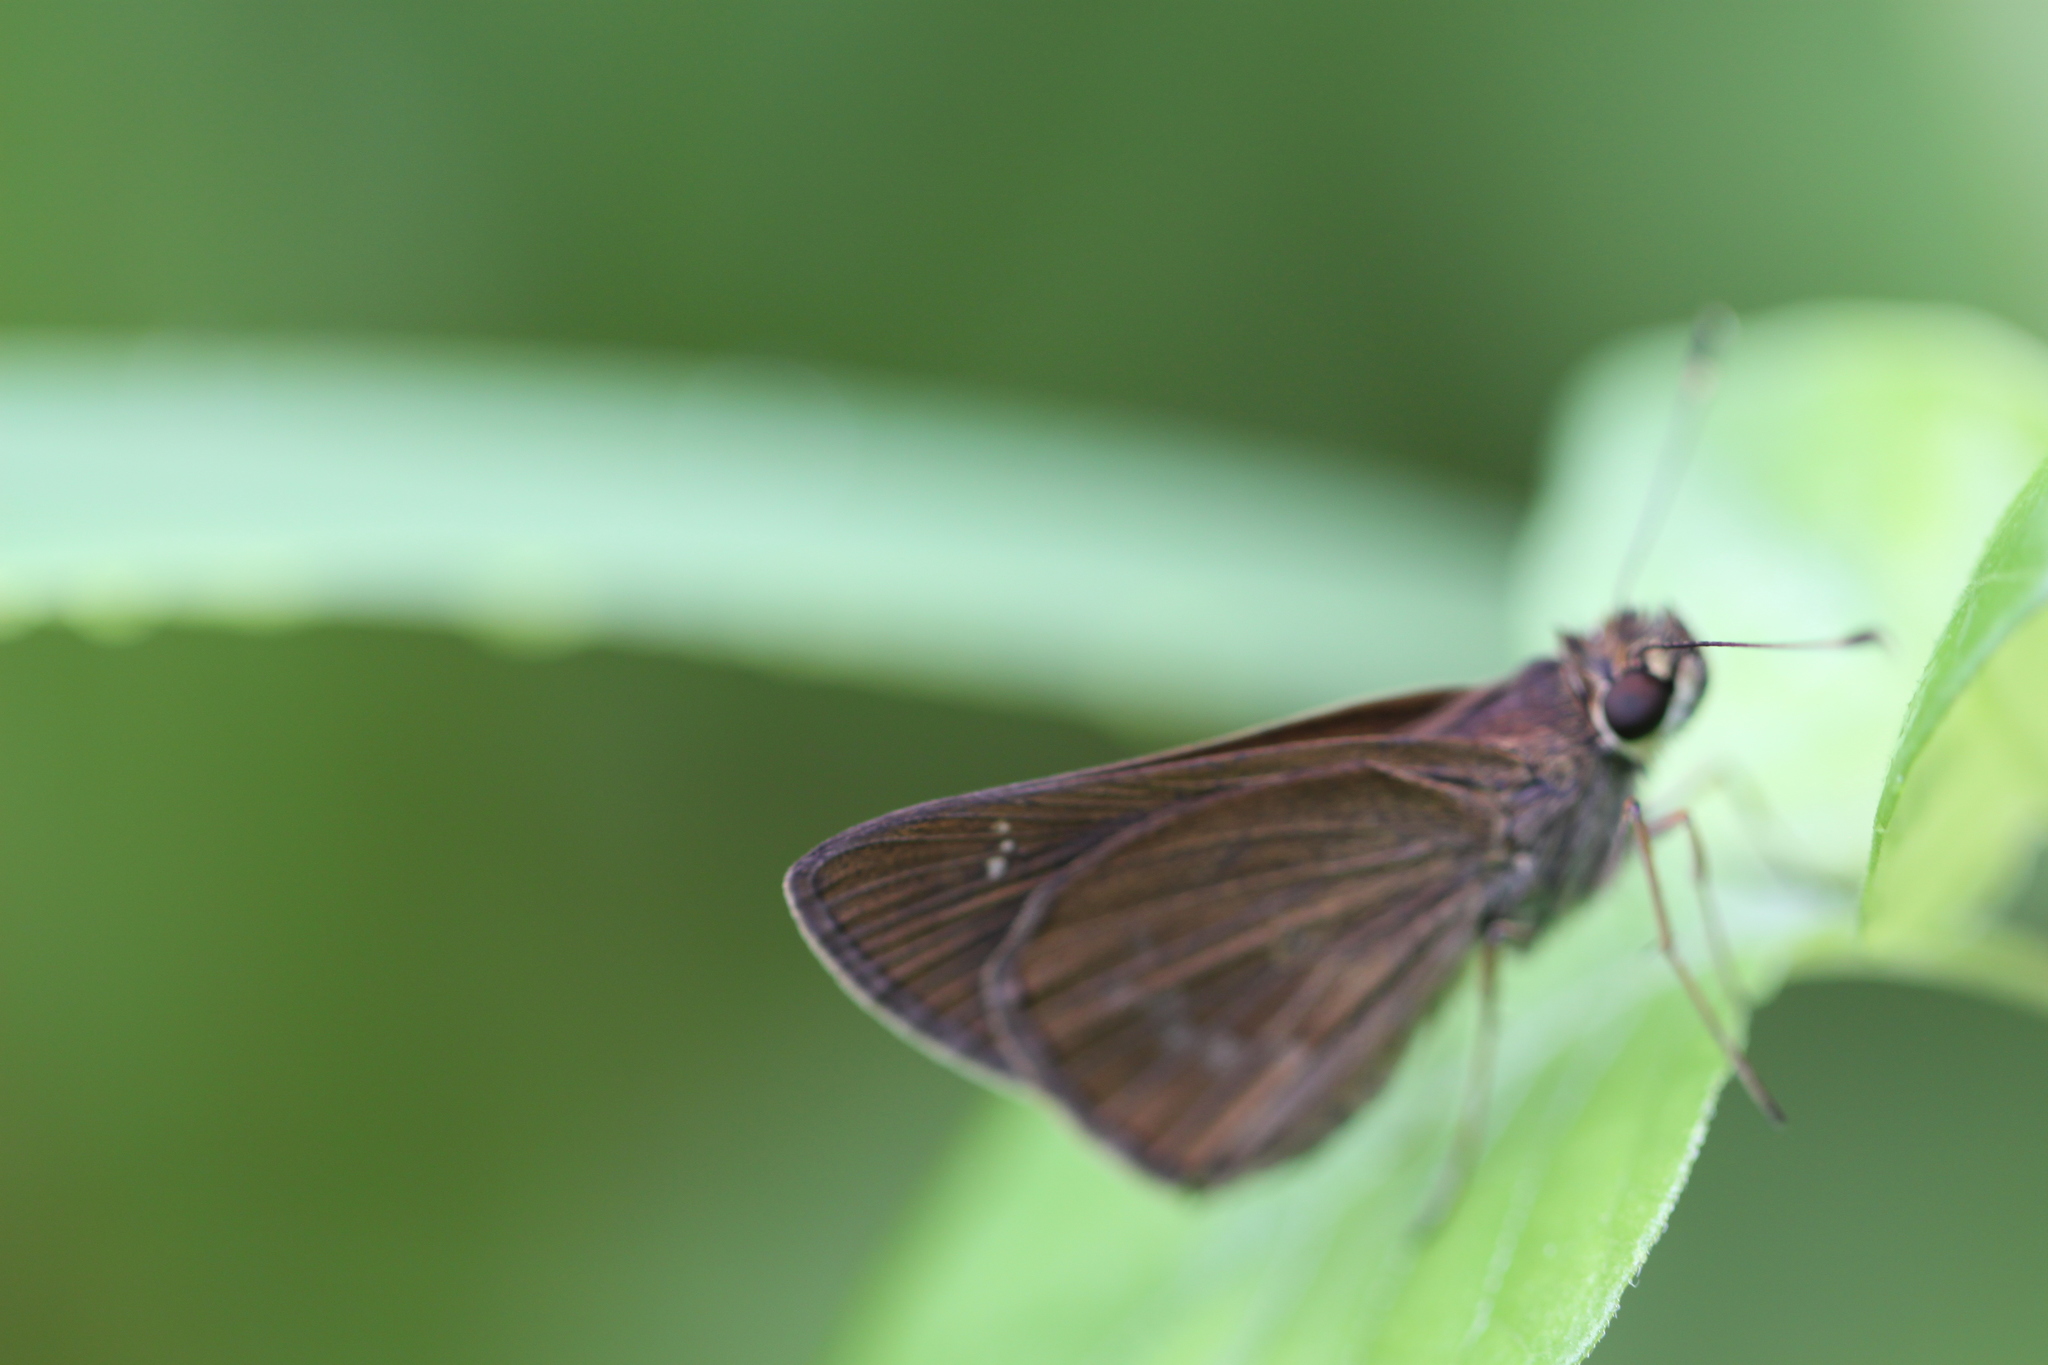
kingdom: Animalia
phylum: Arthropoda
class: Insecta
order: Lepidoptera
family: Hesperiidae
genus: Cymaenes
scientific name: Cymaenes tripunctus
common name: Dingy dotted skipper
